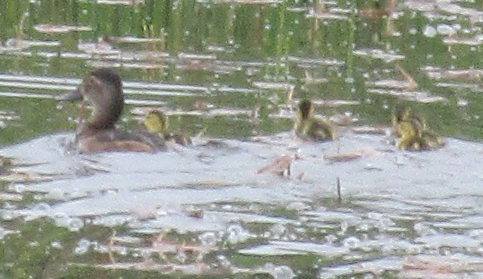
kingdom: Animalia
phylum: Chordata
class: Aves
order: Anseriformes
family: Anatidae
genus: Aythya
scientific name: Aythya collaris
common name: Ring-necked duck
